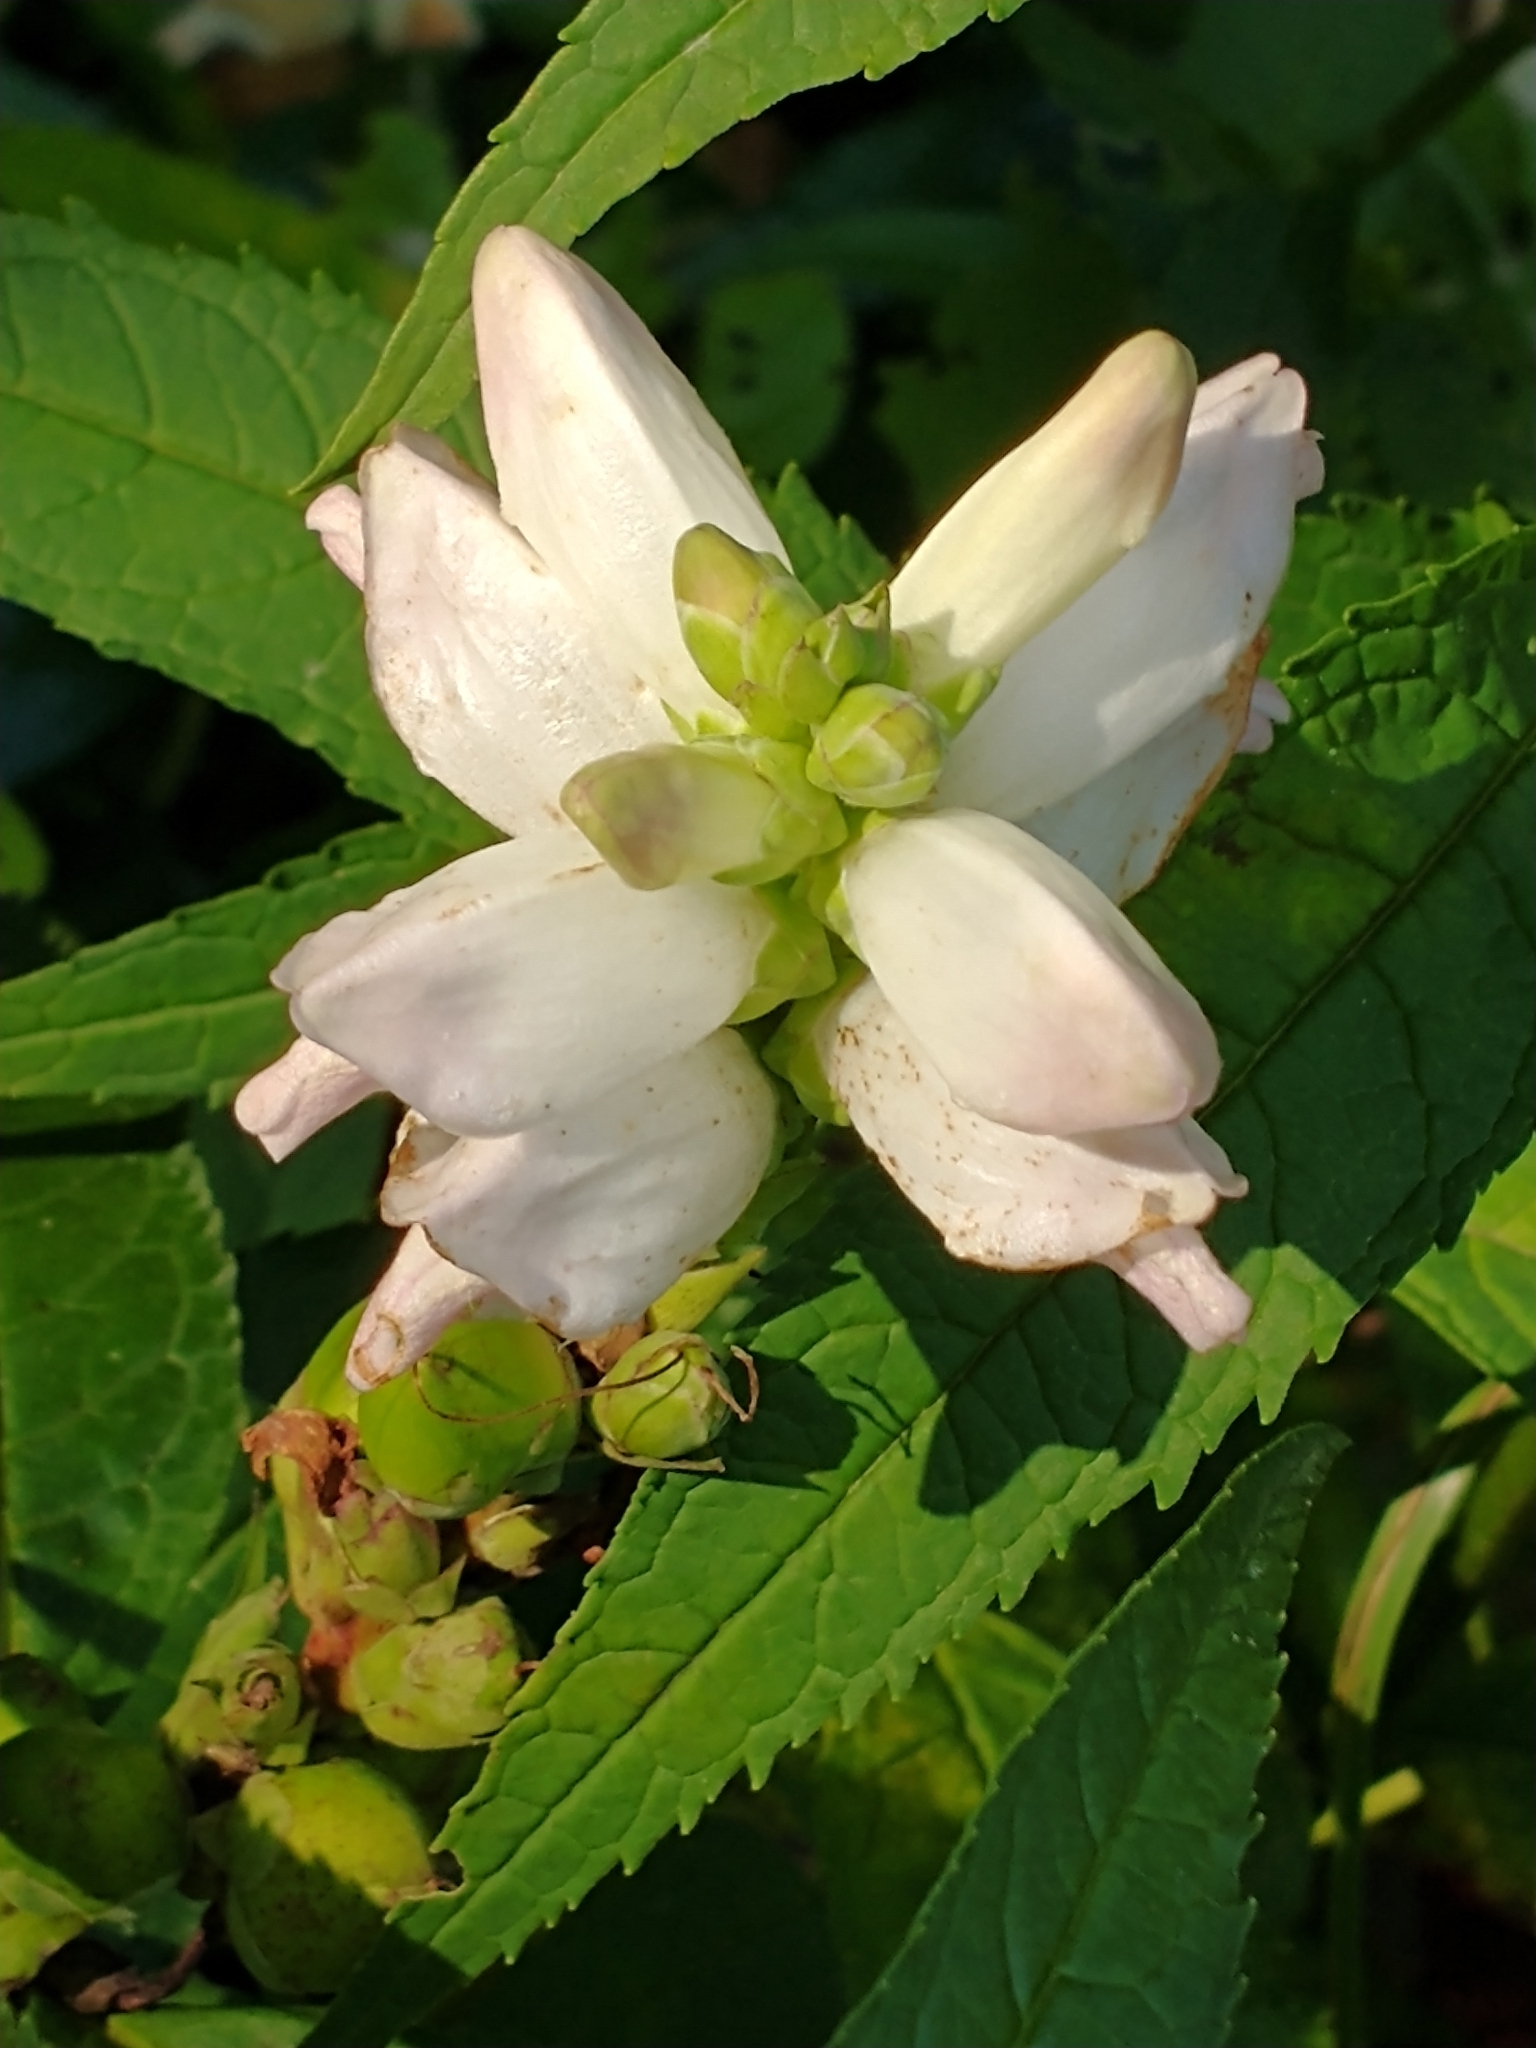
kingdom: Plantae
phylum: Tracheophyta
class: Magnoliopsida
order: Lamiales
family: Plantaginaceae
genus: Chelone
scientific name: Chelone glabra
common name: Snakehead
